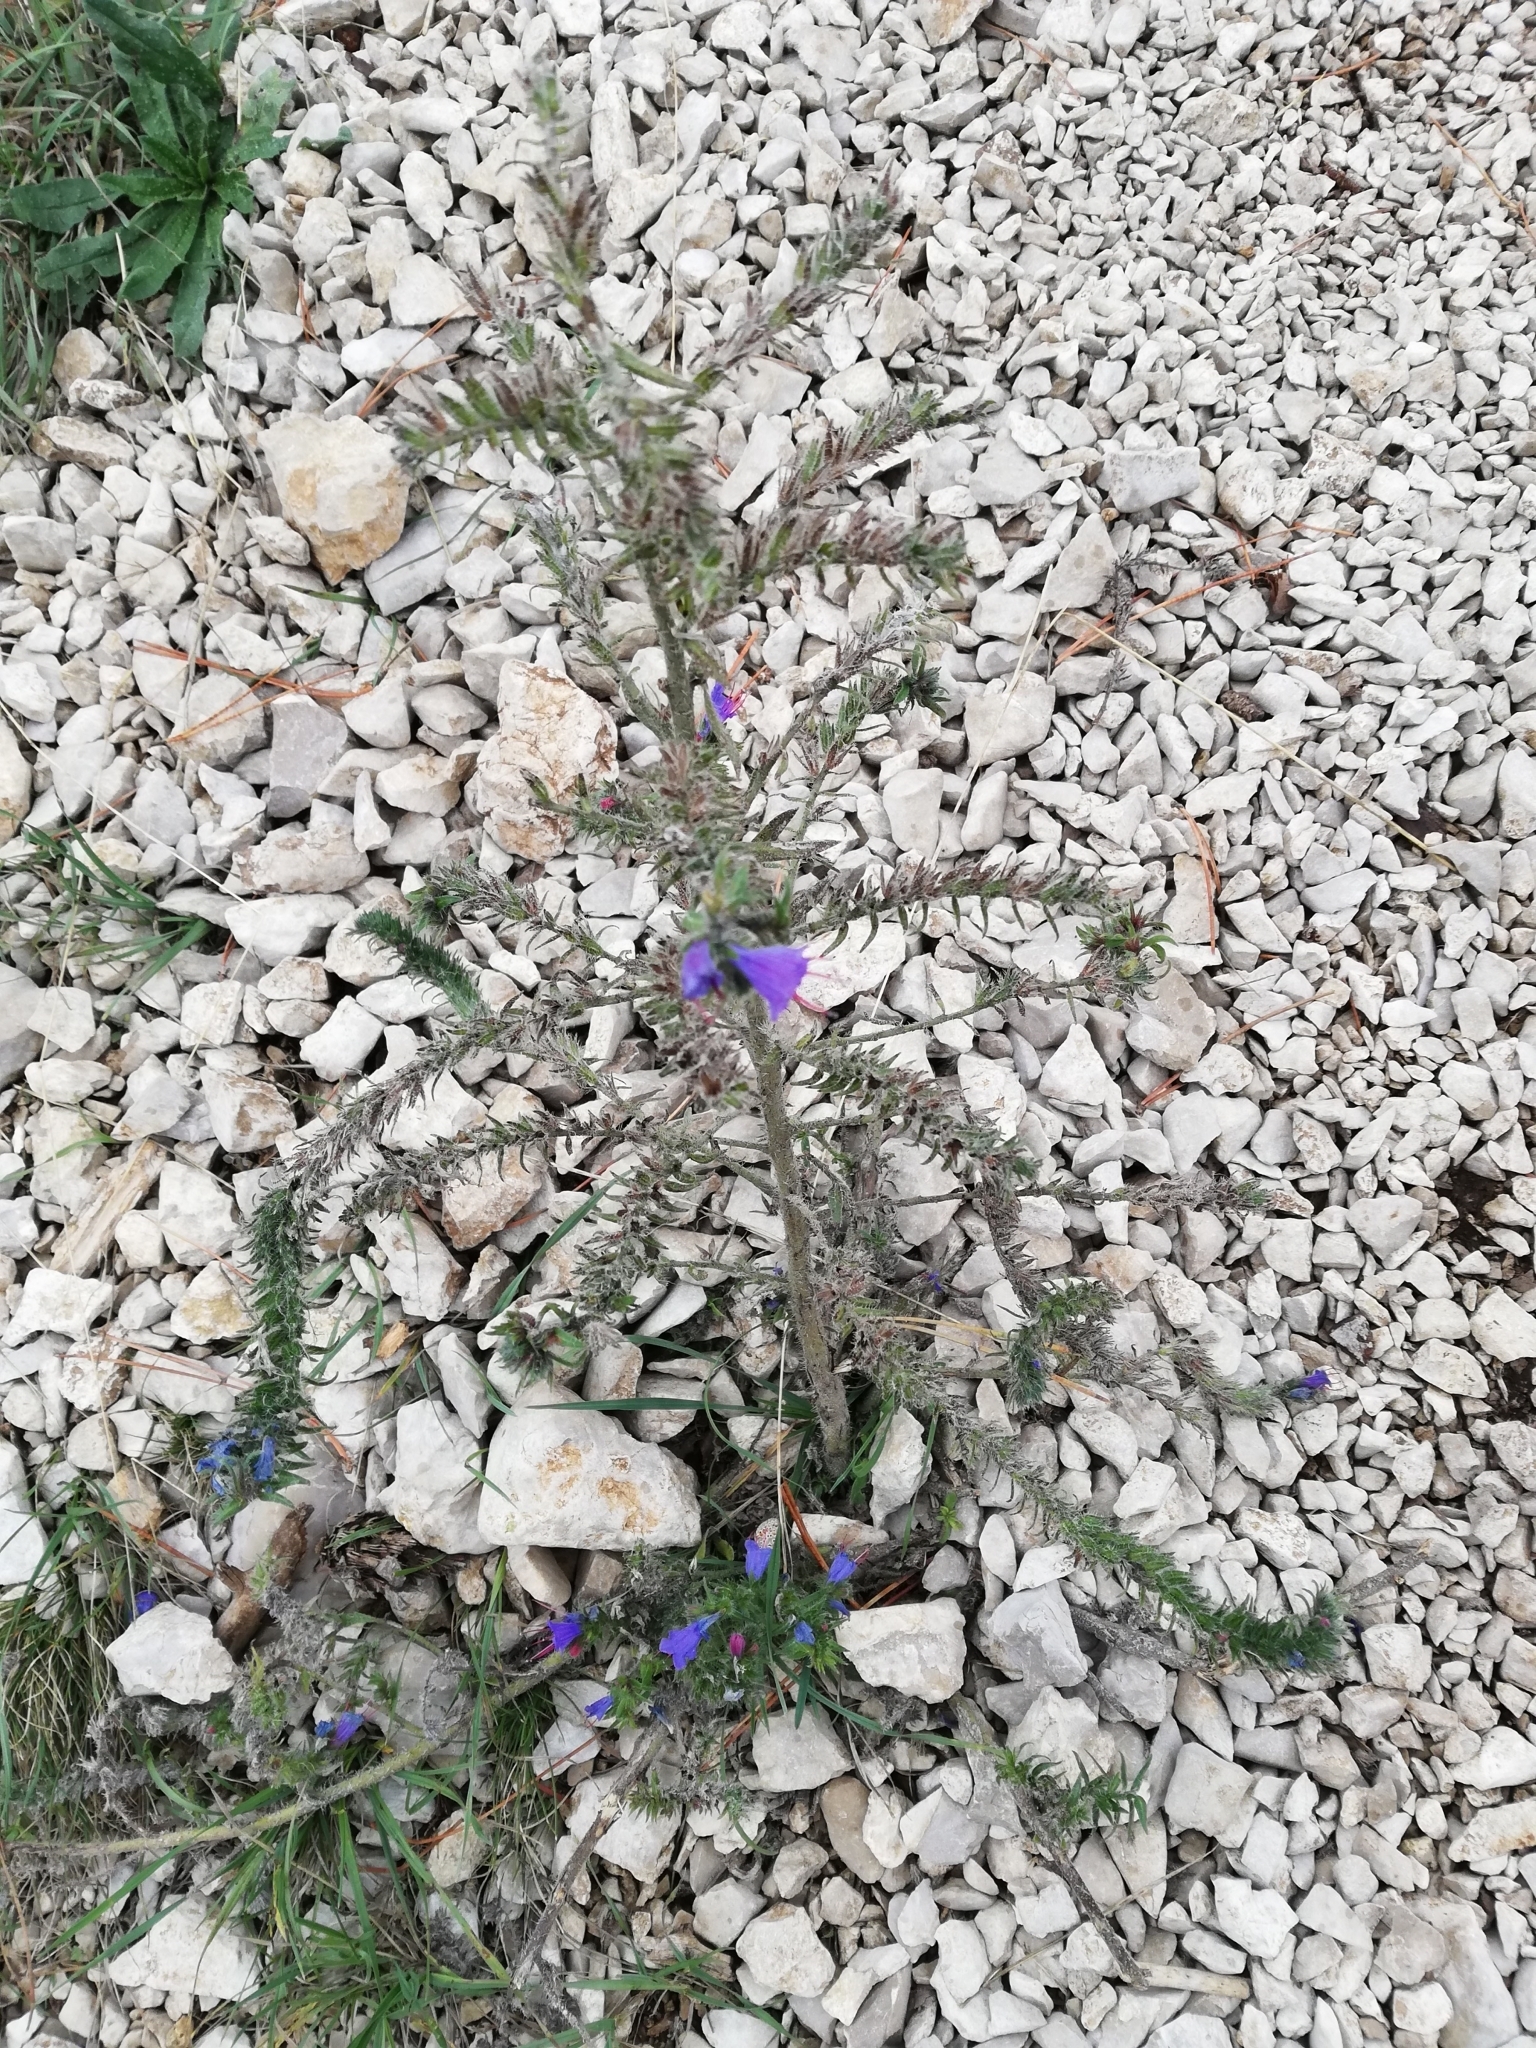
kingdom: Plantae
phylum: Tracheophyta
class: Magnoliopsida
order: Boraginales
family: Boraginaceae
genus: Echium
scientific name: Echium vulgare
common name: Common viper's bugloss
